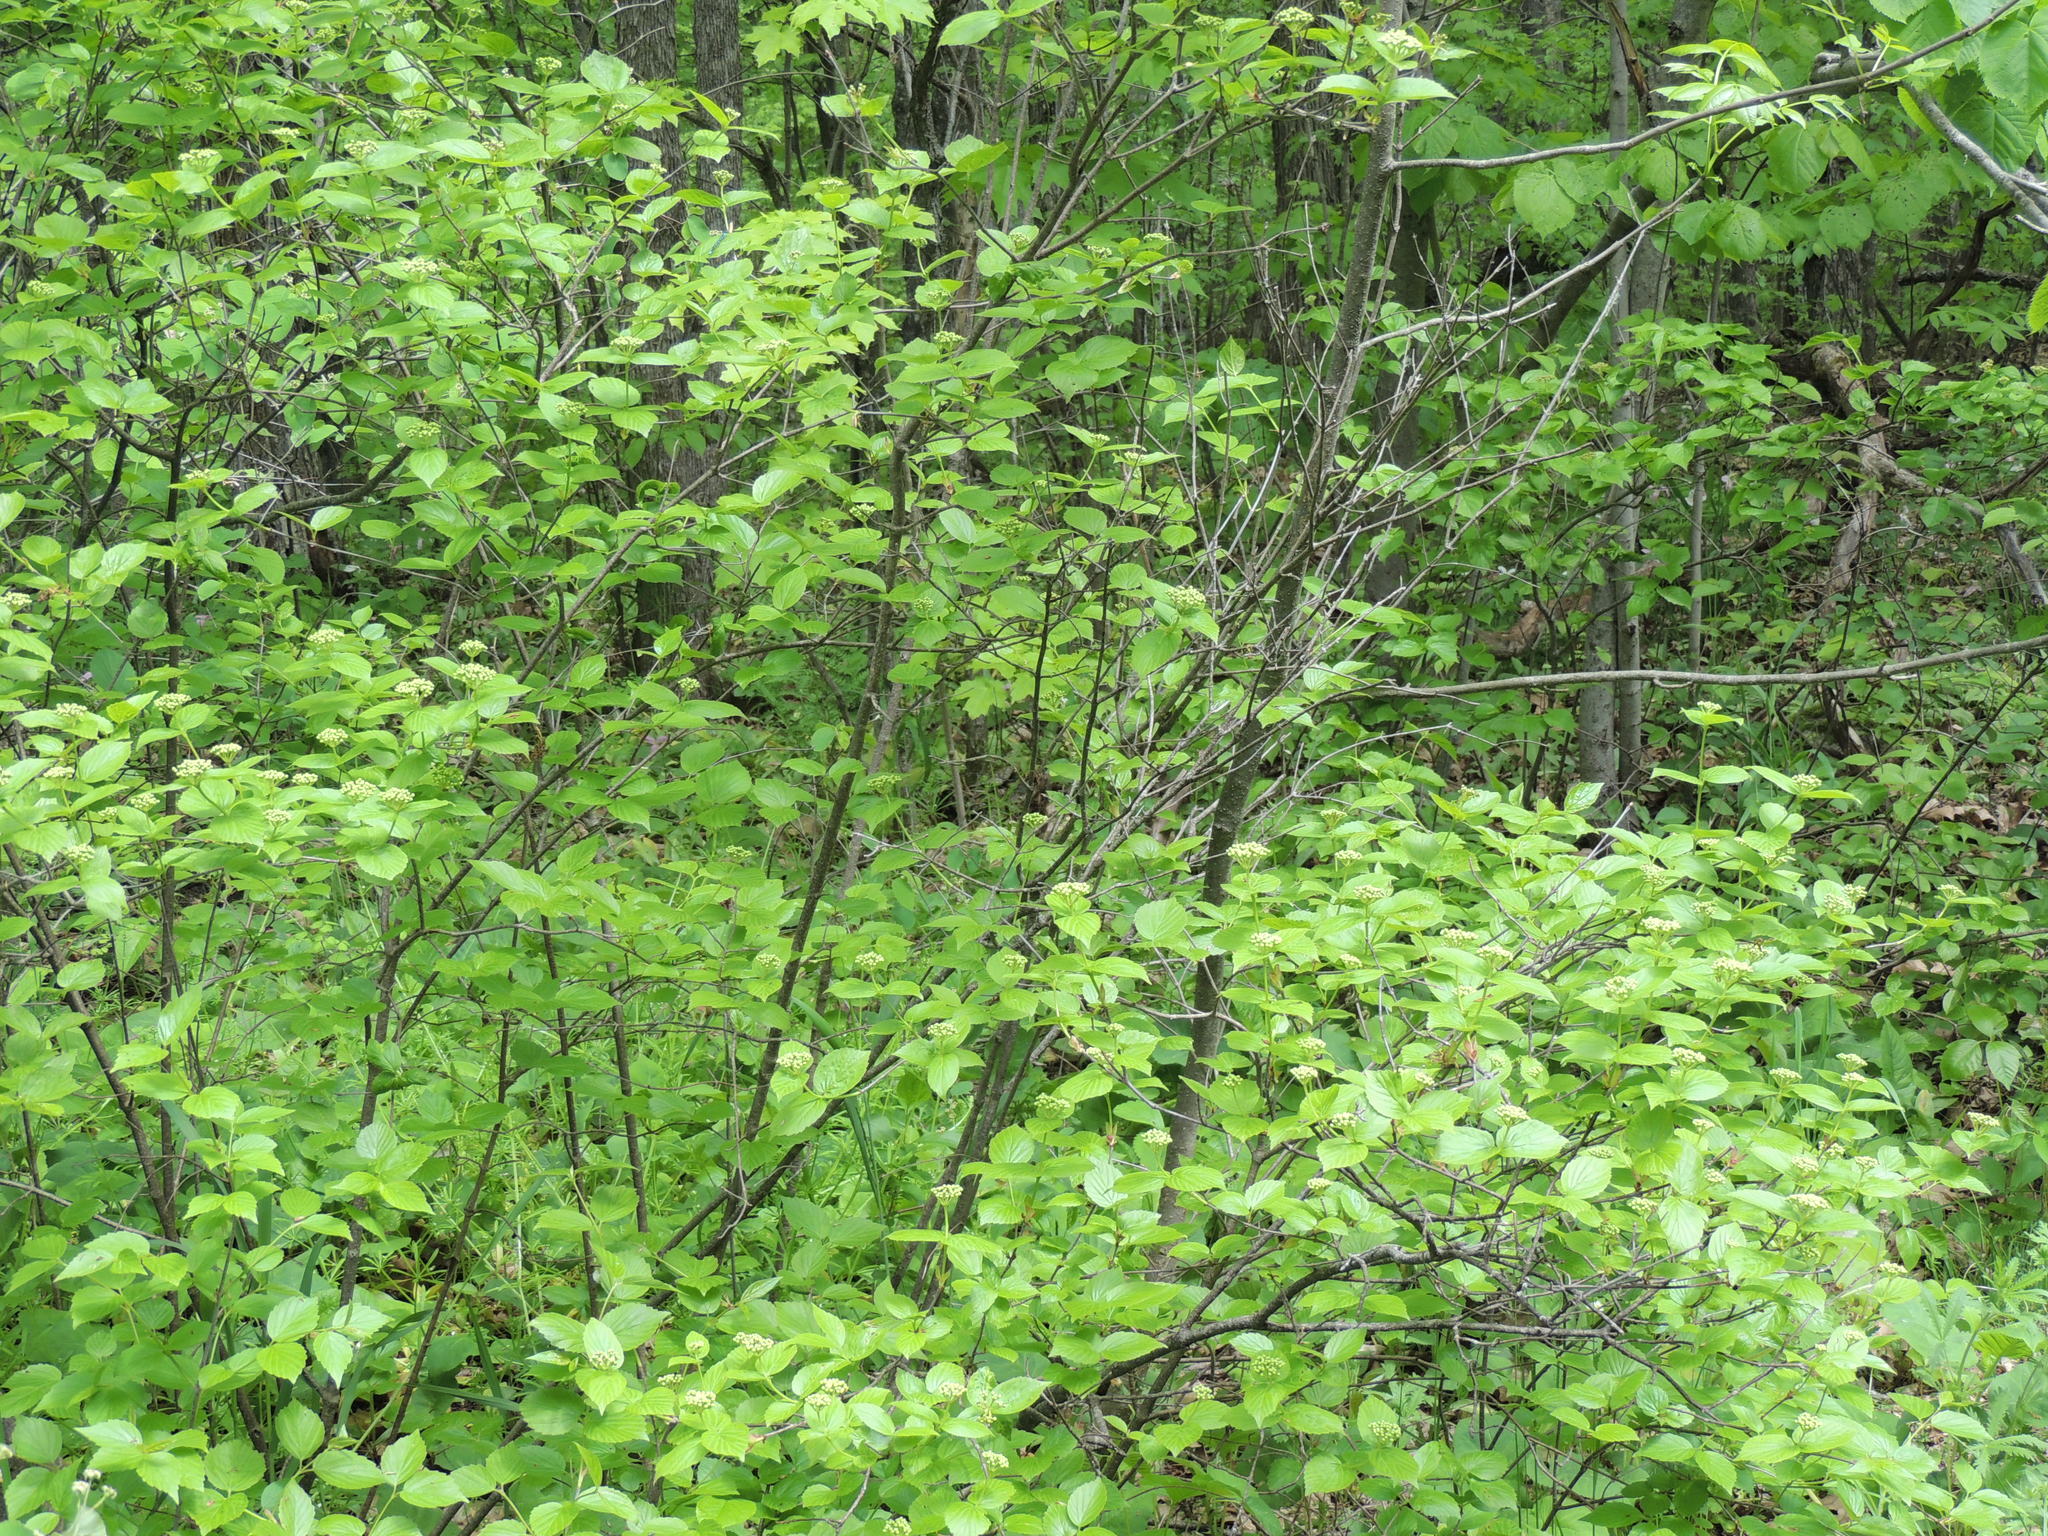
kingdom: Plantae
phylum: Tracheophyta
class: Magnoliopsida
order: Dipsacales
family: Viburnaceae
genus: Viburnum
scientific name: Viburnum rafinesqueanum
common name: Downy arrow-wood
